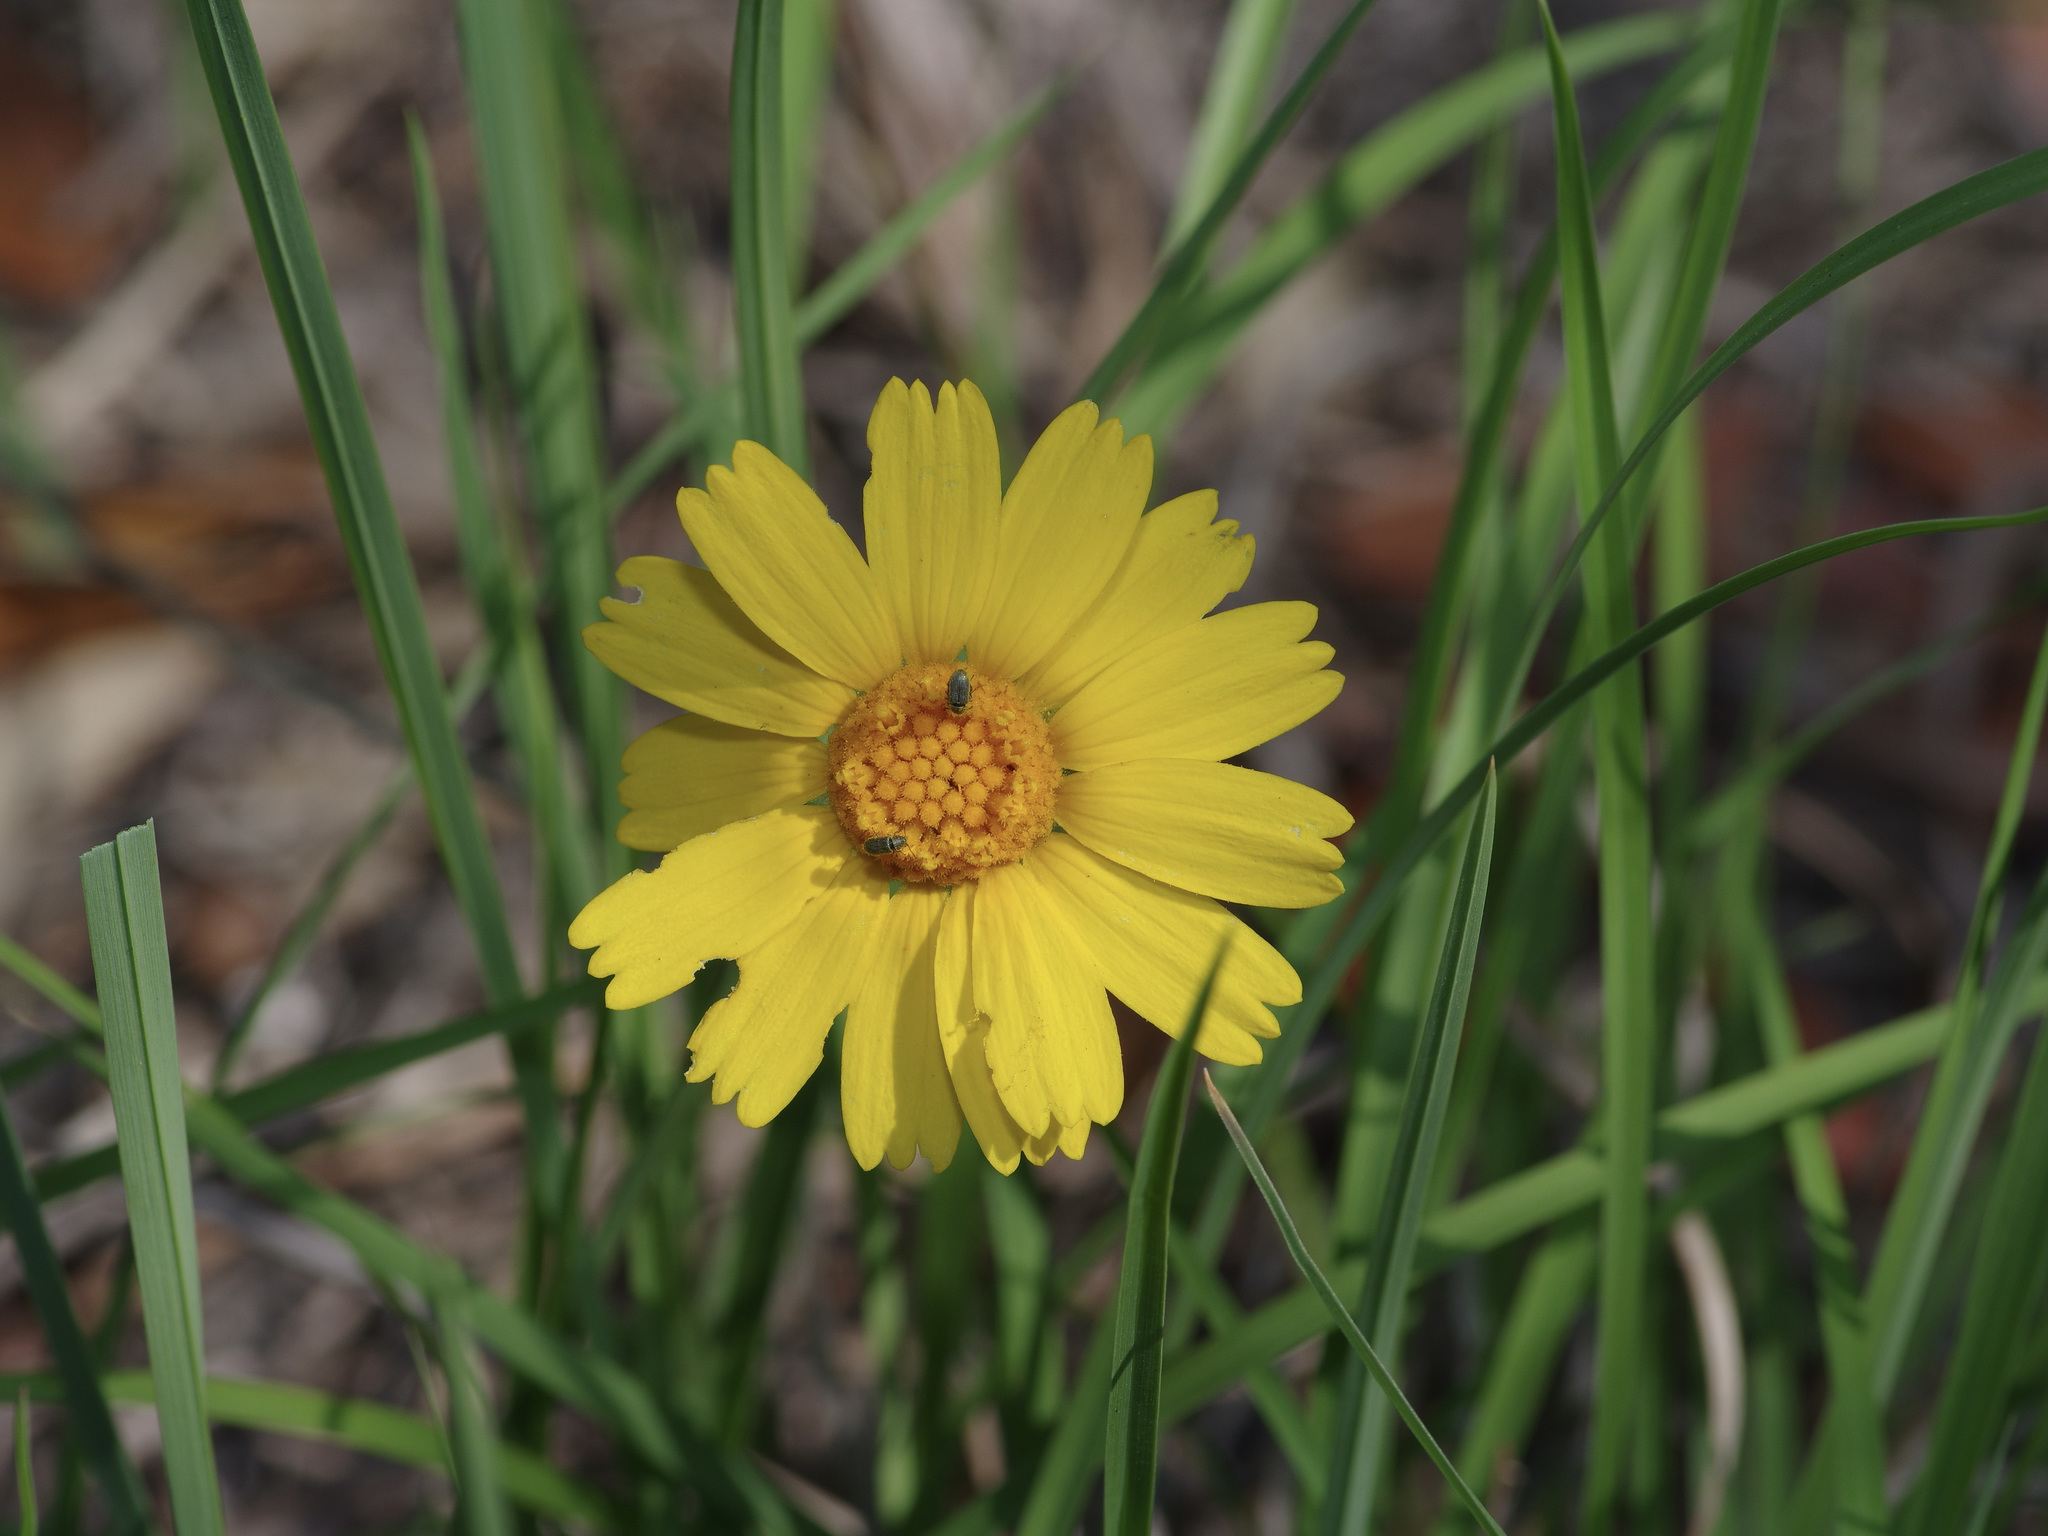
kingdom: Plantae
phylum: Tracheophyta
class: Magnoliopsida
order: Asterales
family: Asteraceae
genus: Tetraneuris
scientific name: Tetraneuris scaposa
